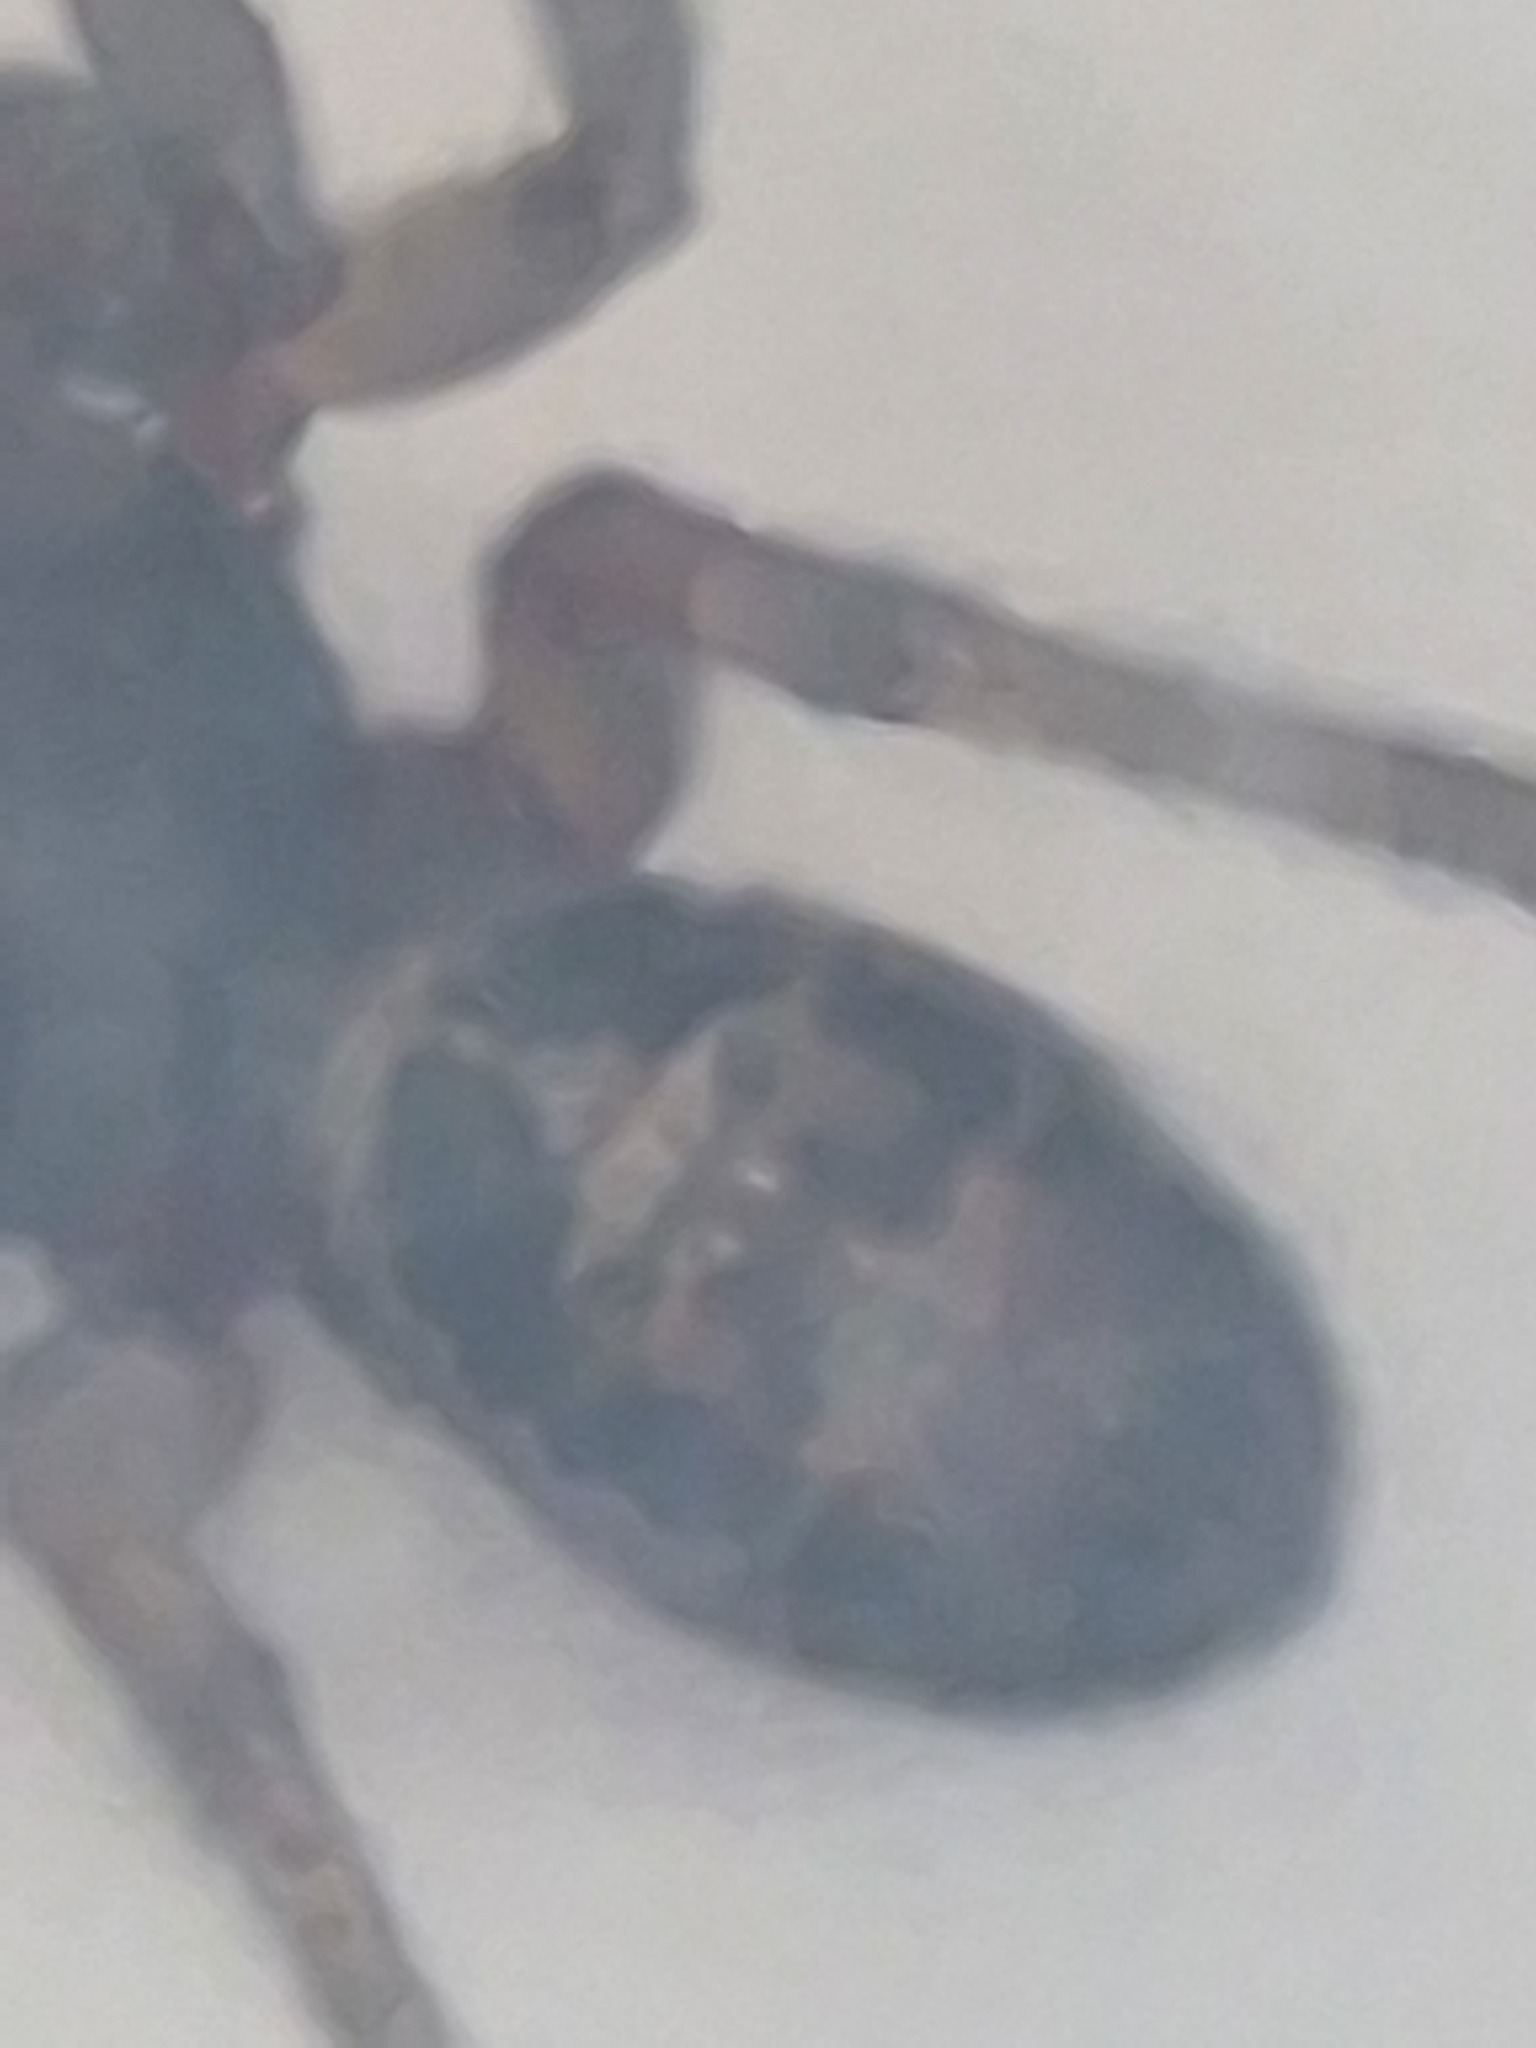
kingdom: Animalia
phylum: Arthropoda
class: Arachnida
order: Araneae
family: Theridiidae
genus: Steatoda
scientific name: Steatoda nobilis
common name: Cobweb weaver
